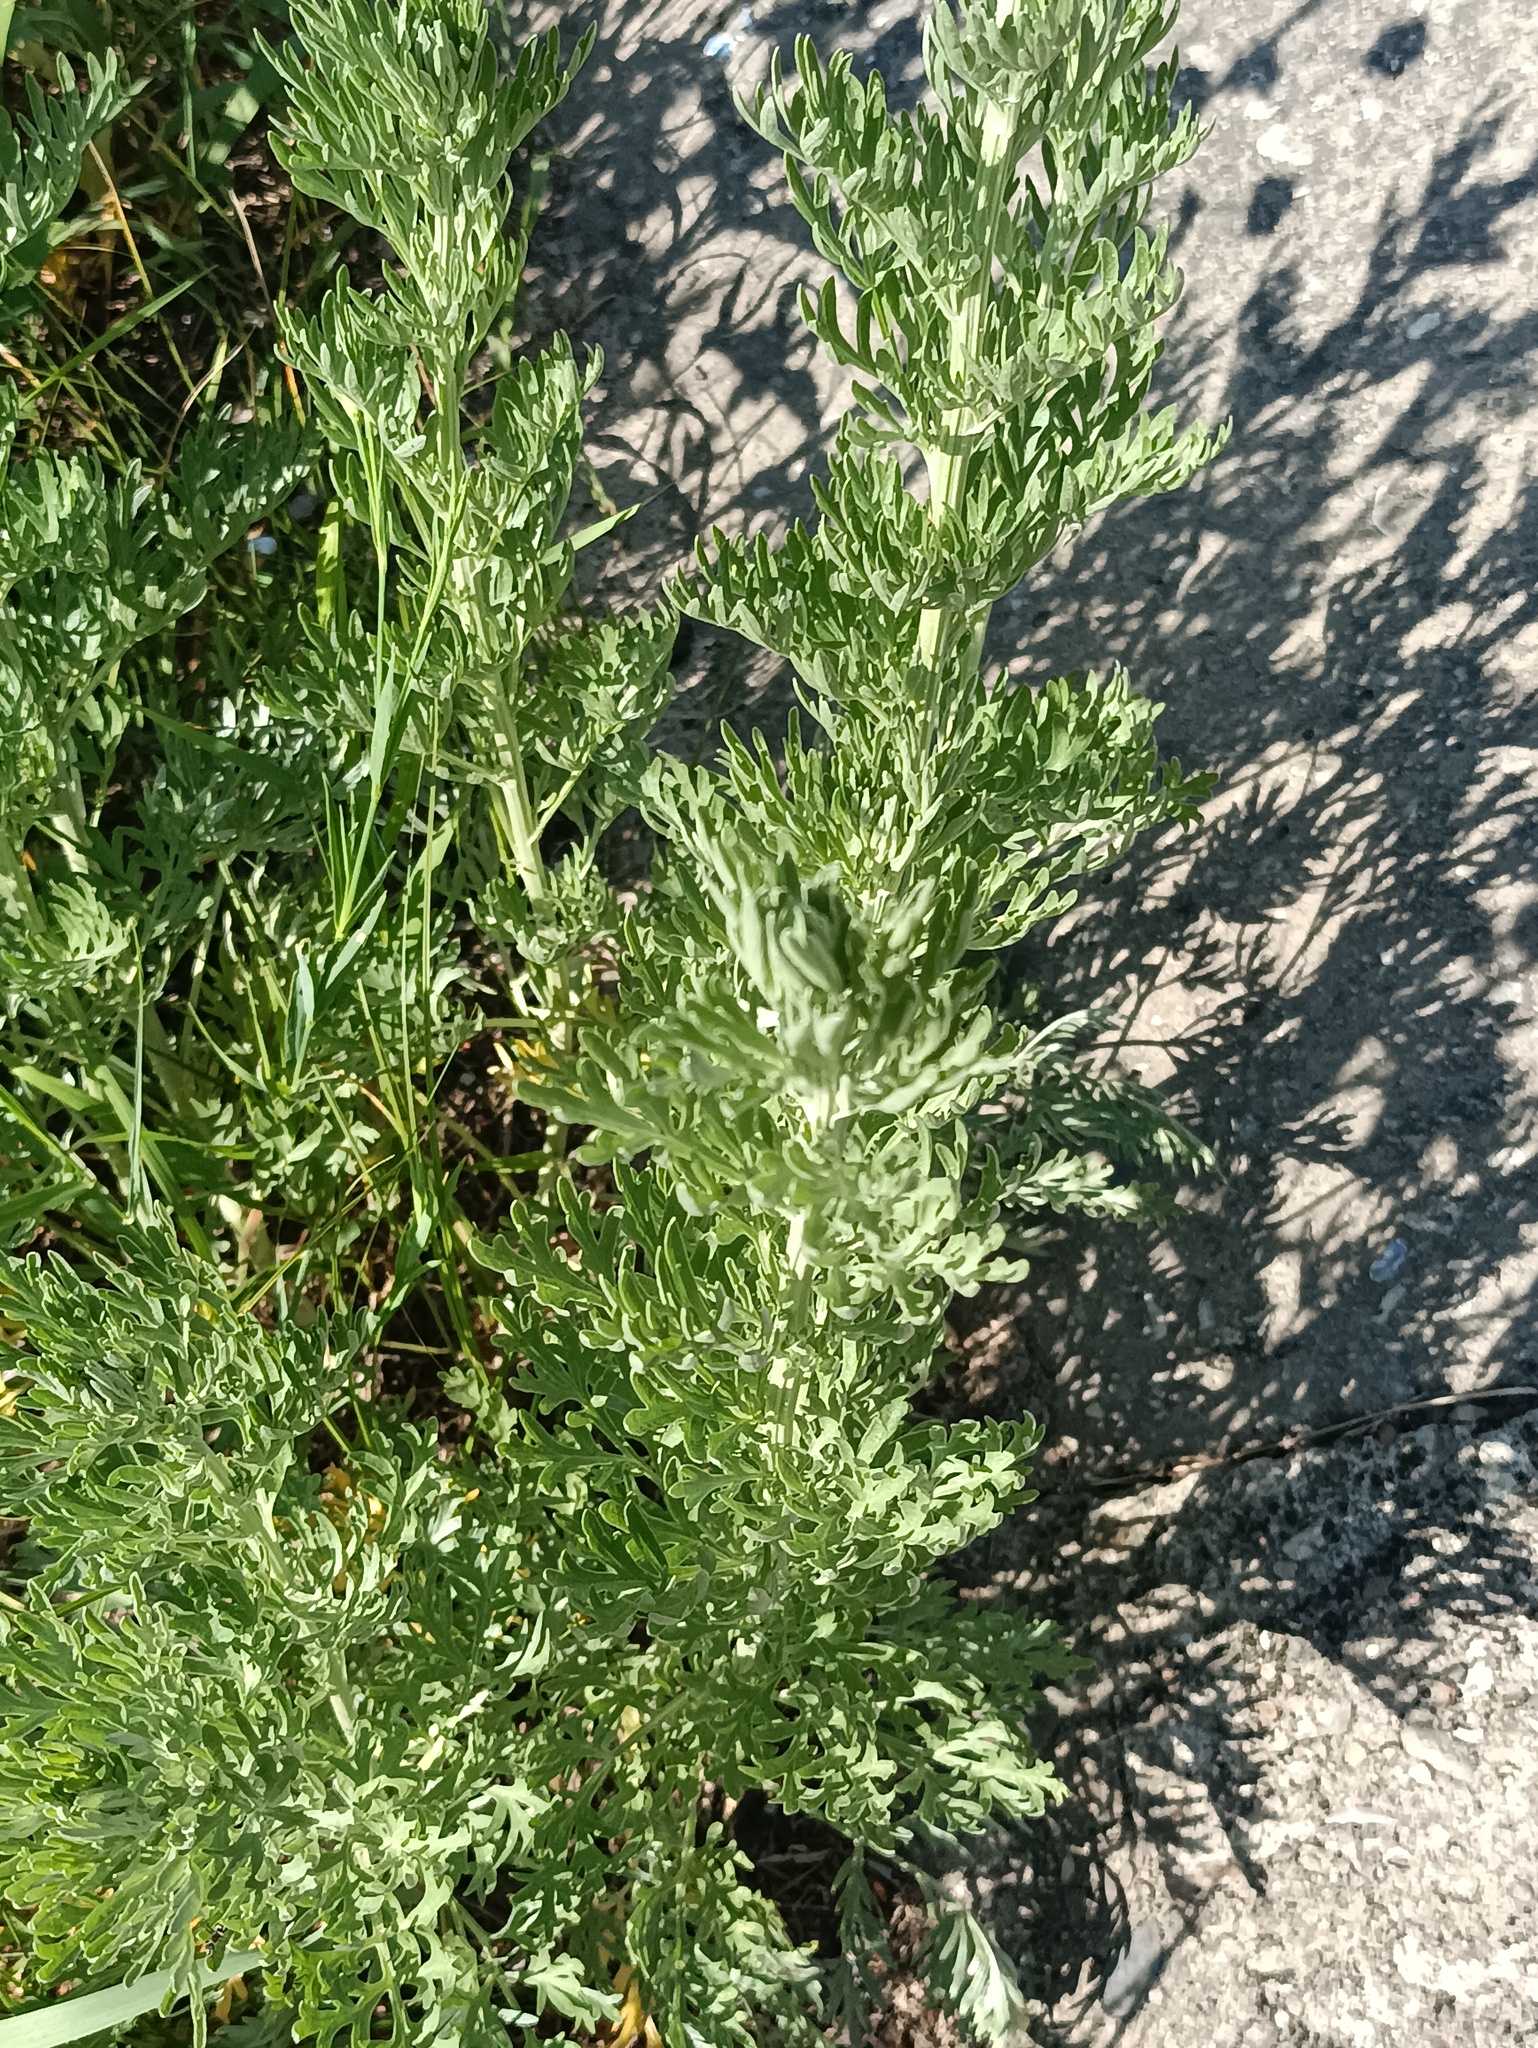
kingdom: Plantae
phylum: Tracheophyta
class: Magnoliopsida
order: Asterales
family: Asteraceae
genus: Artemisia
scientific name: Artemisia absinthium
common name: Wormwood
